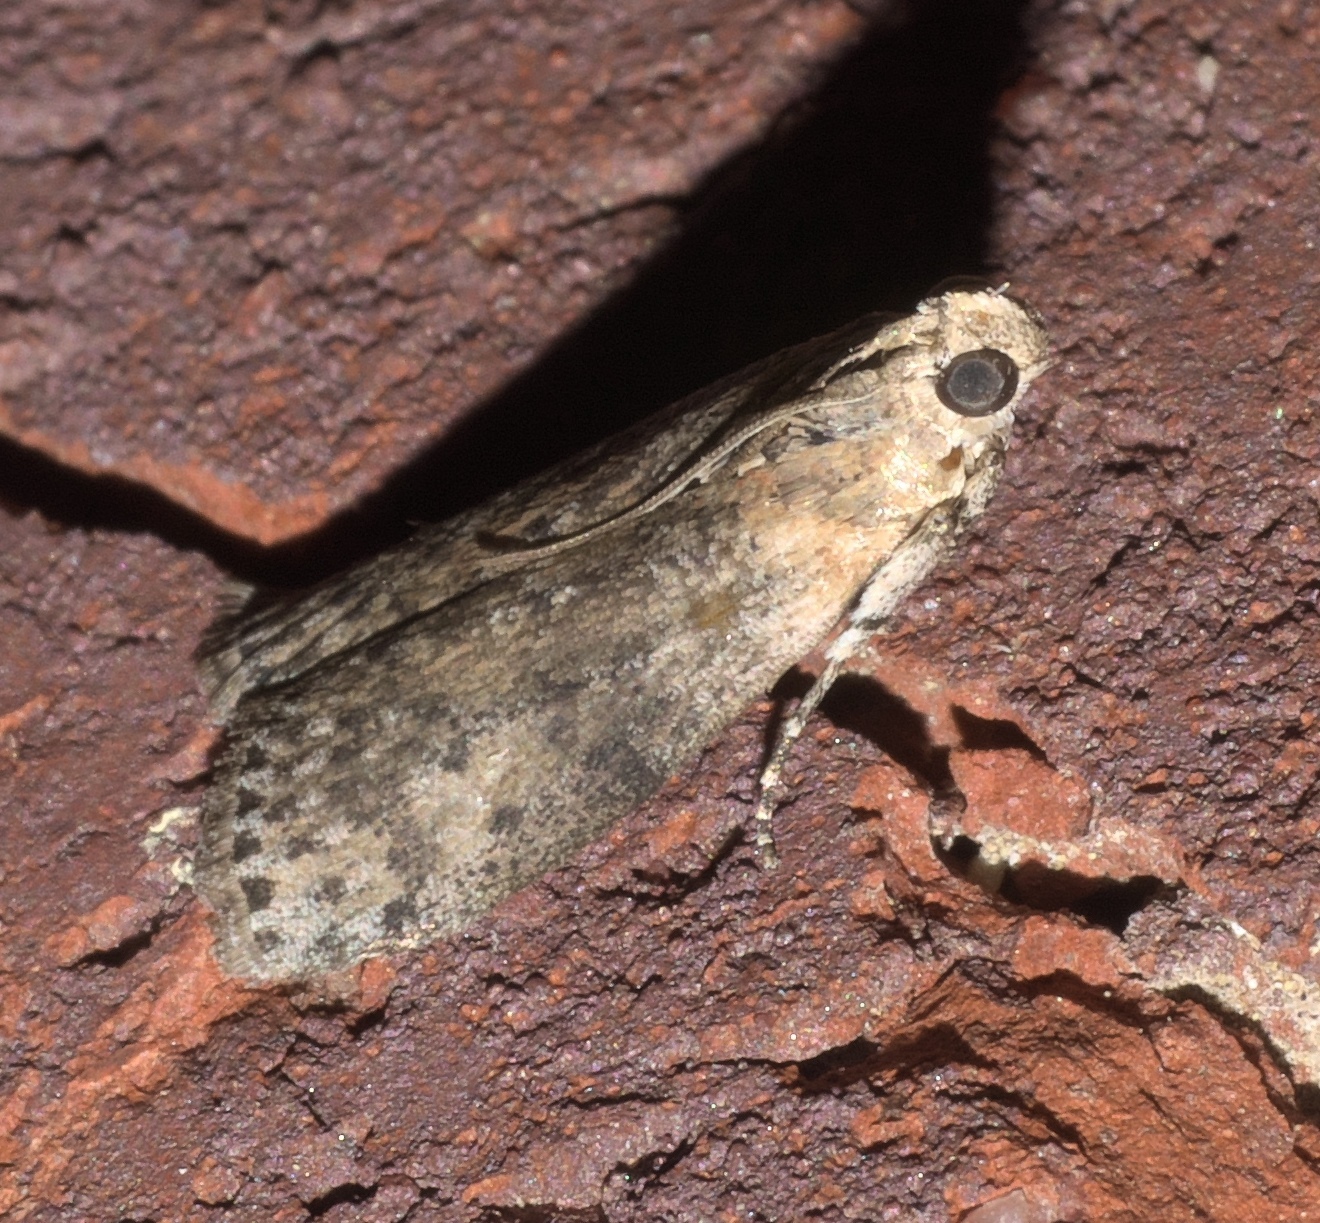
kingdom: Animalia
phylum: Arthropoda
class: Insecta
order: Lepidoptera
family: Pyralidae
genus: Sciota
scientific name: Sciota celtidella
